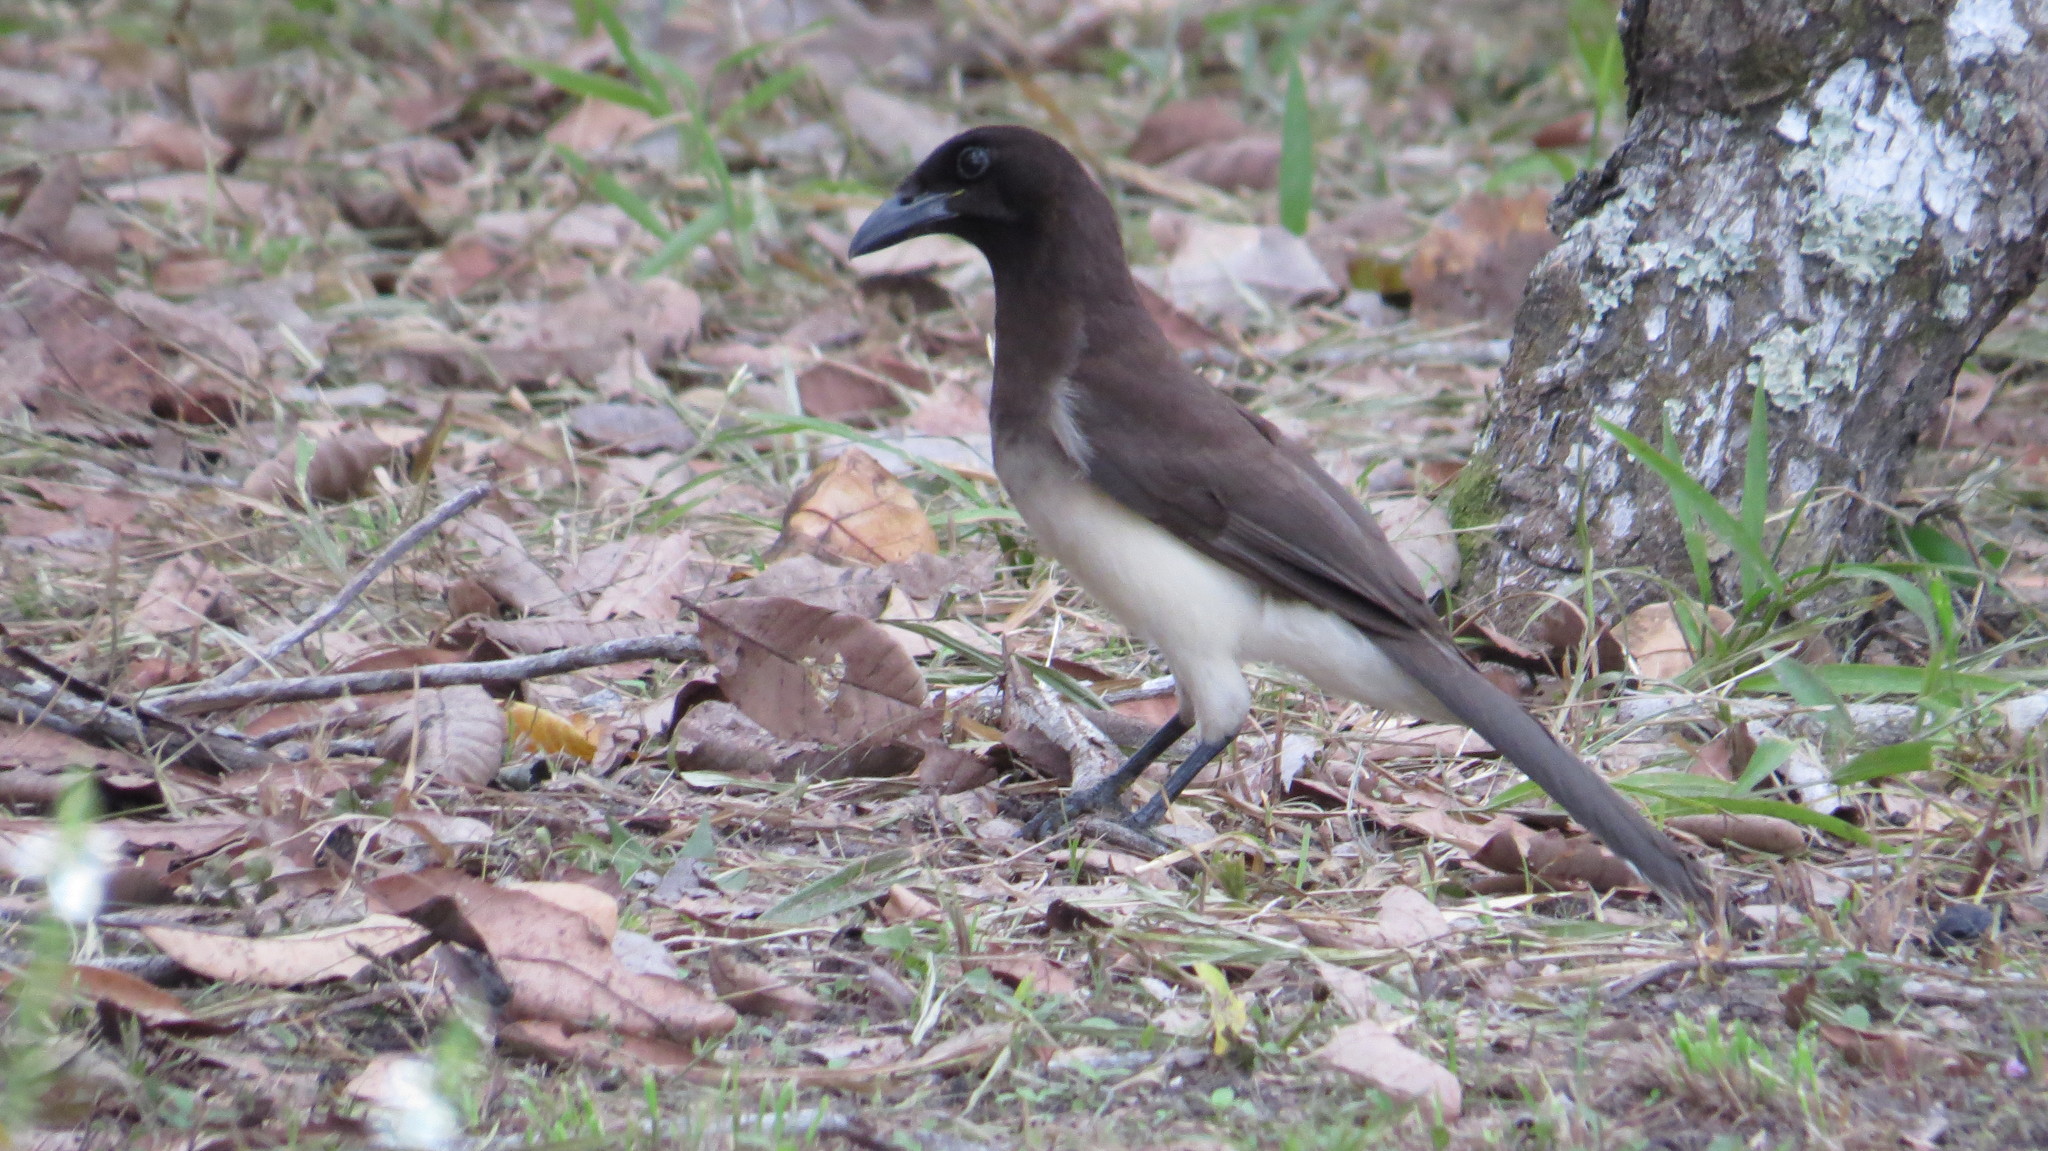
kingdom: Animalia
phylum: Chordata
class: Aves
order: Passeriformes
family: Corvidae
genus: Psilorhinus
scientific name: Psilorhinus morio
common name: Brown jay
